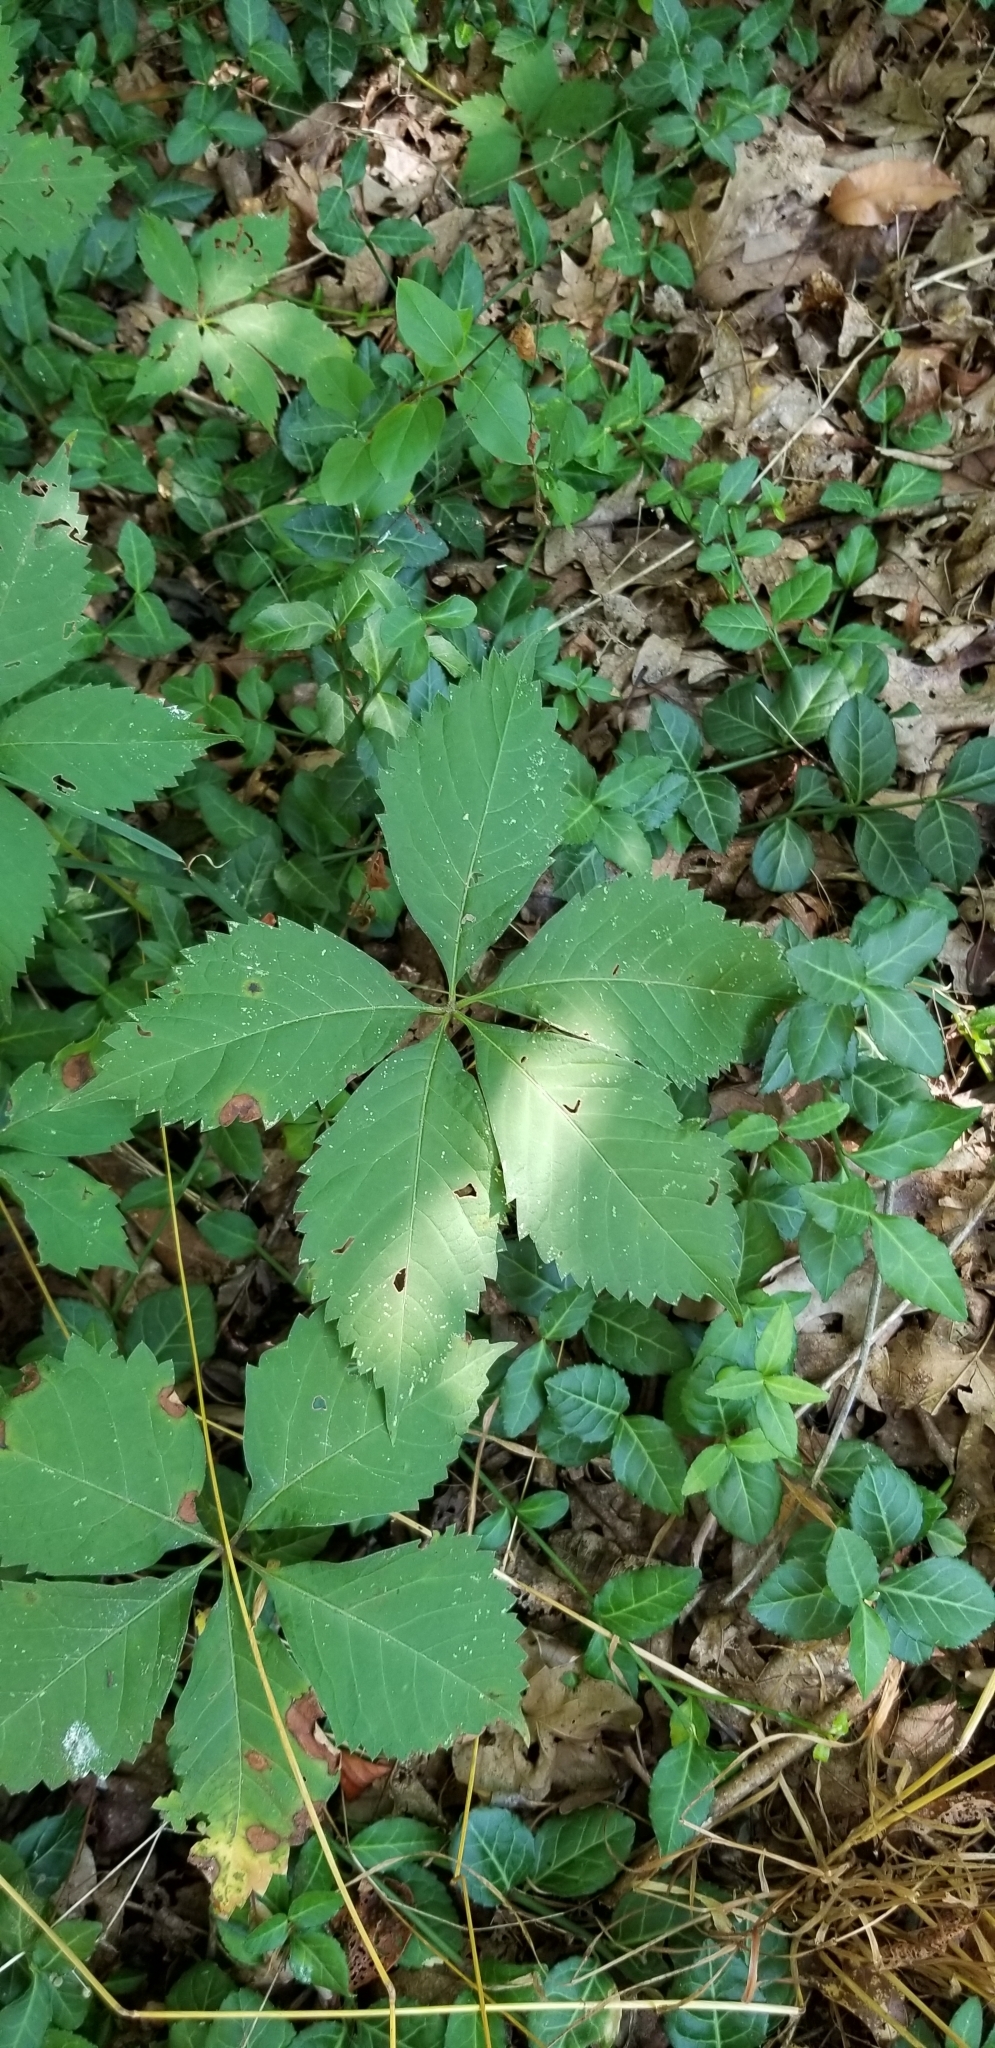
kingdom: Plantae
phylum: Tracheophyta
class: Magnoliopsida
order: Vitales
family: Vitaceae
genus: Parthenocissus
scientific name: Parthenocissus quinquefolia
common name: Virginia-creeper
